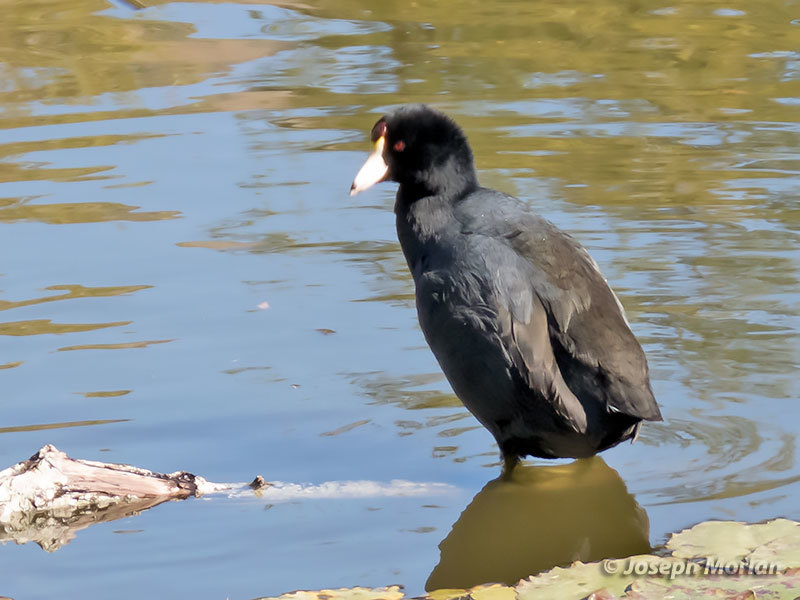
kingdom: Animalia
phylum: Chordata
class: Aves
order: Gruiformes
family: Rallidae
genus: Fulica
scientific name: Fulica americana
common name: American coot
